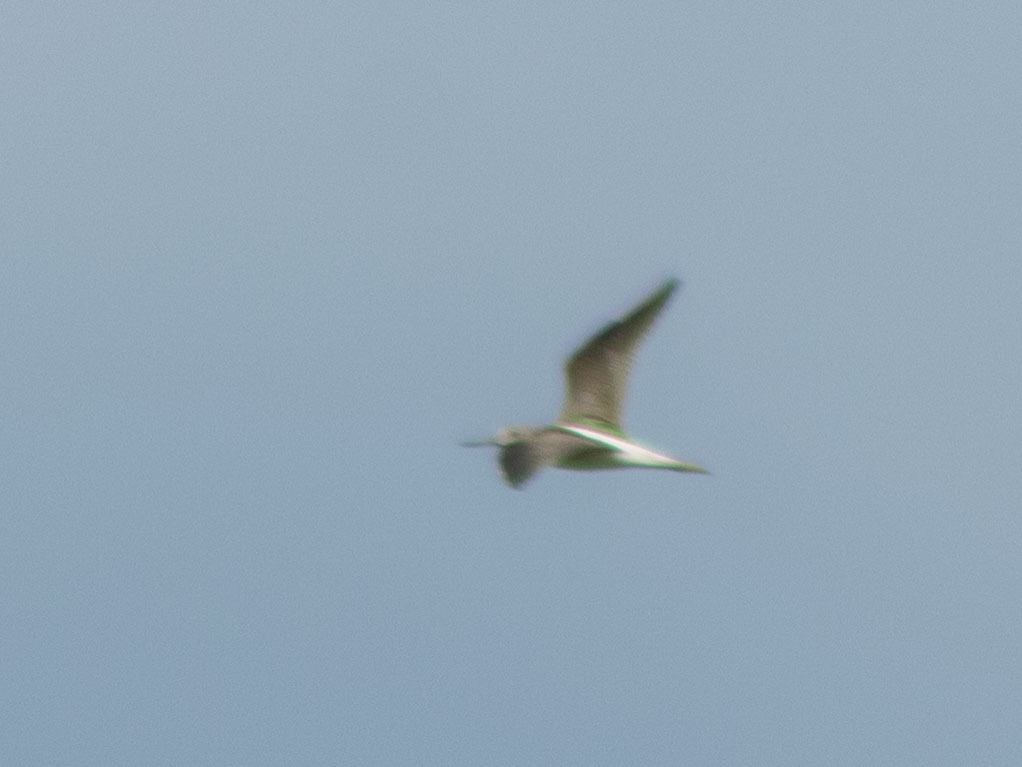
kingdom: Animalia
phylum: Chordata
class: Aves
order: Charadriiformes
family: Scolopacidae
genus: Tringa
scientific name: Tringa nebularia
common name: Common greenshank
